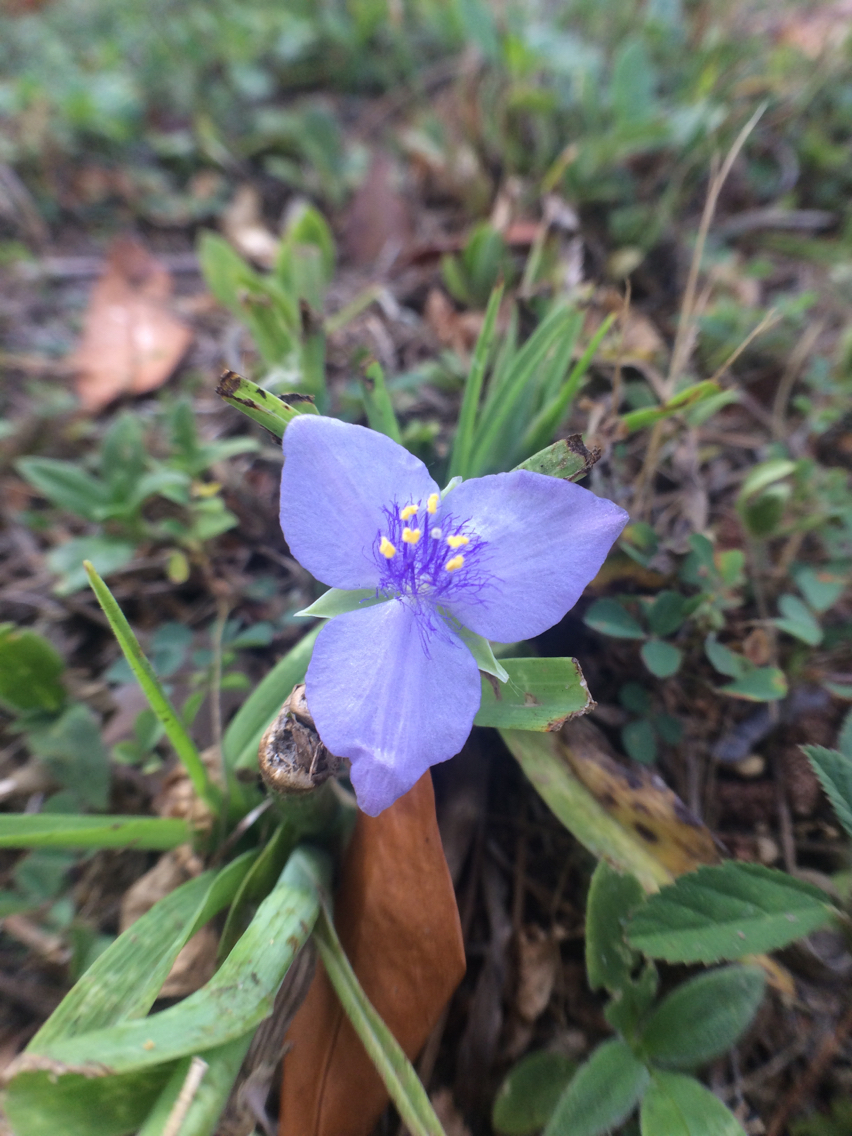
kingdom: Plantae
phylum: Tracheophyta
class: Liliopsida
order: Commelinales
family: Commelinaceae
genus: Tradescantia
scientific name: Tradescantia ohiensis
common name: Ohio spiderwort
